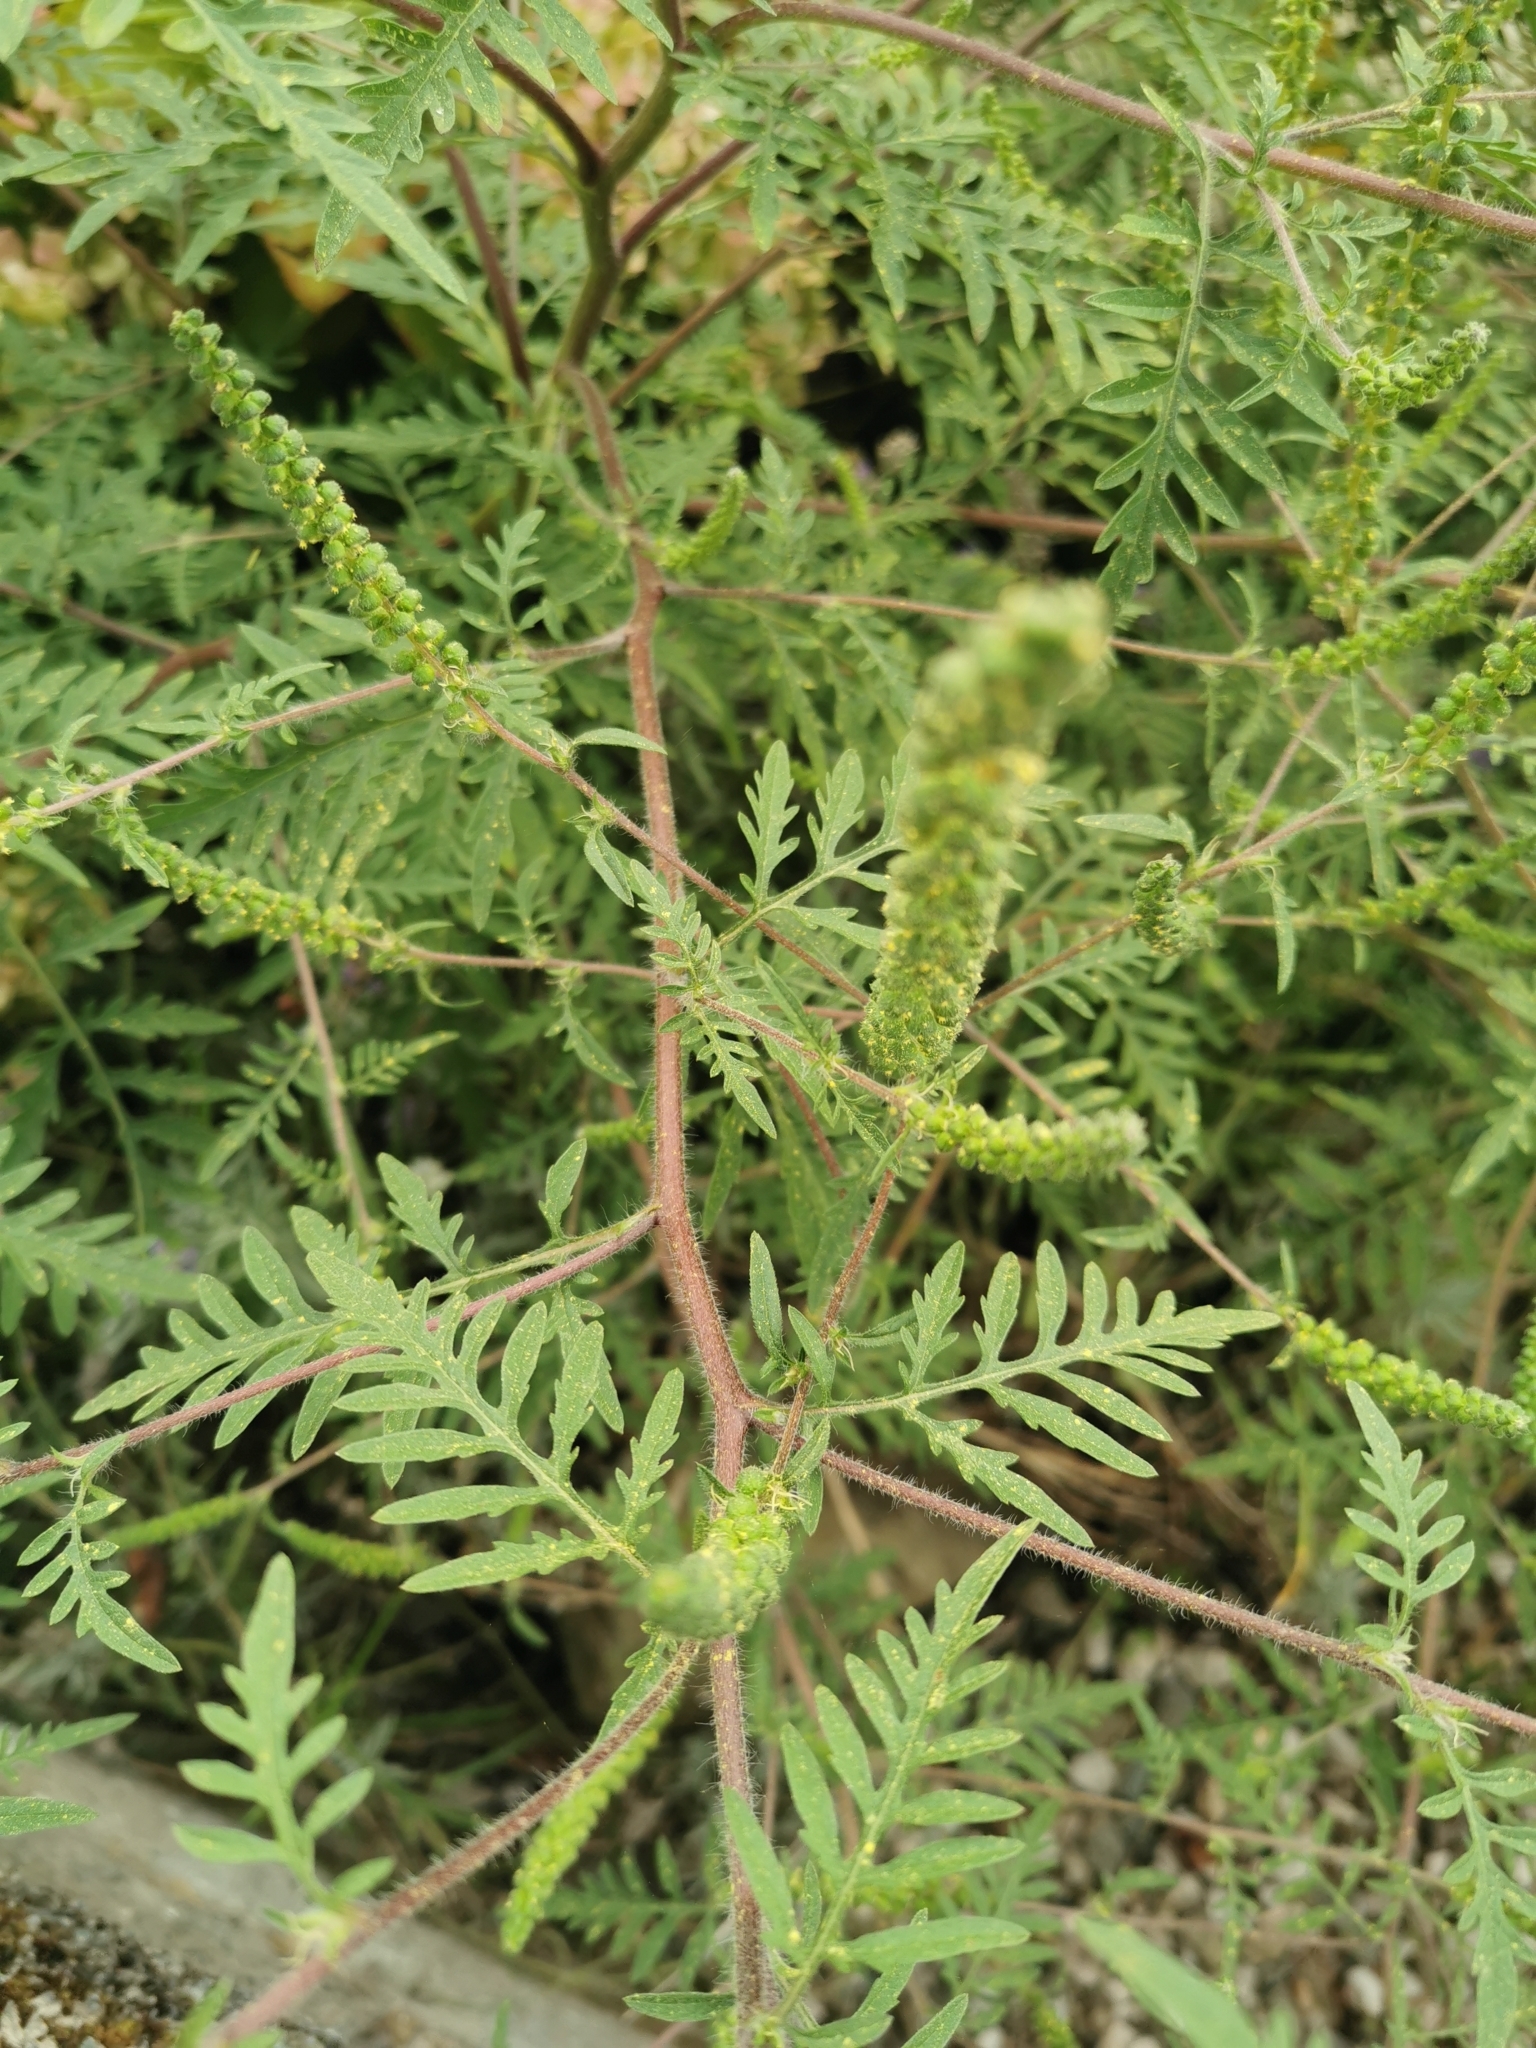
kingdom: Plantae
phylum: Tracheophyta
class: Magnoliopsida
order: Asterales
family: Asteraceae
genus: Ambrosia
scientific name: Ambrosia artemisiifolia
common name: Annual ragweed
